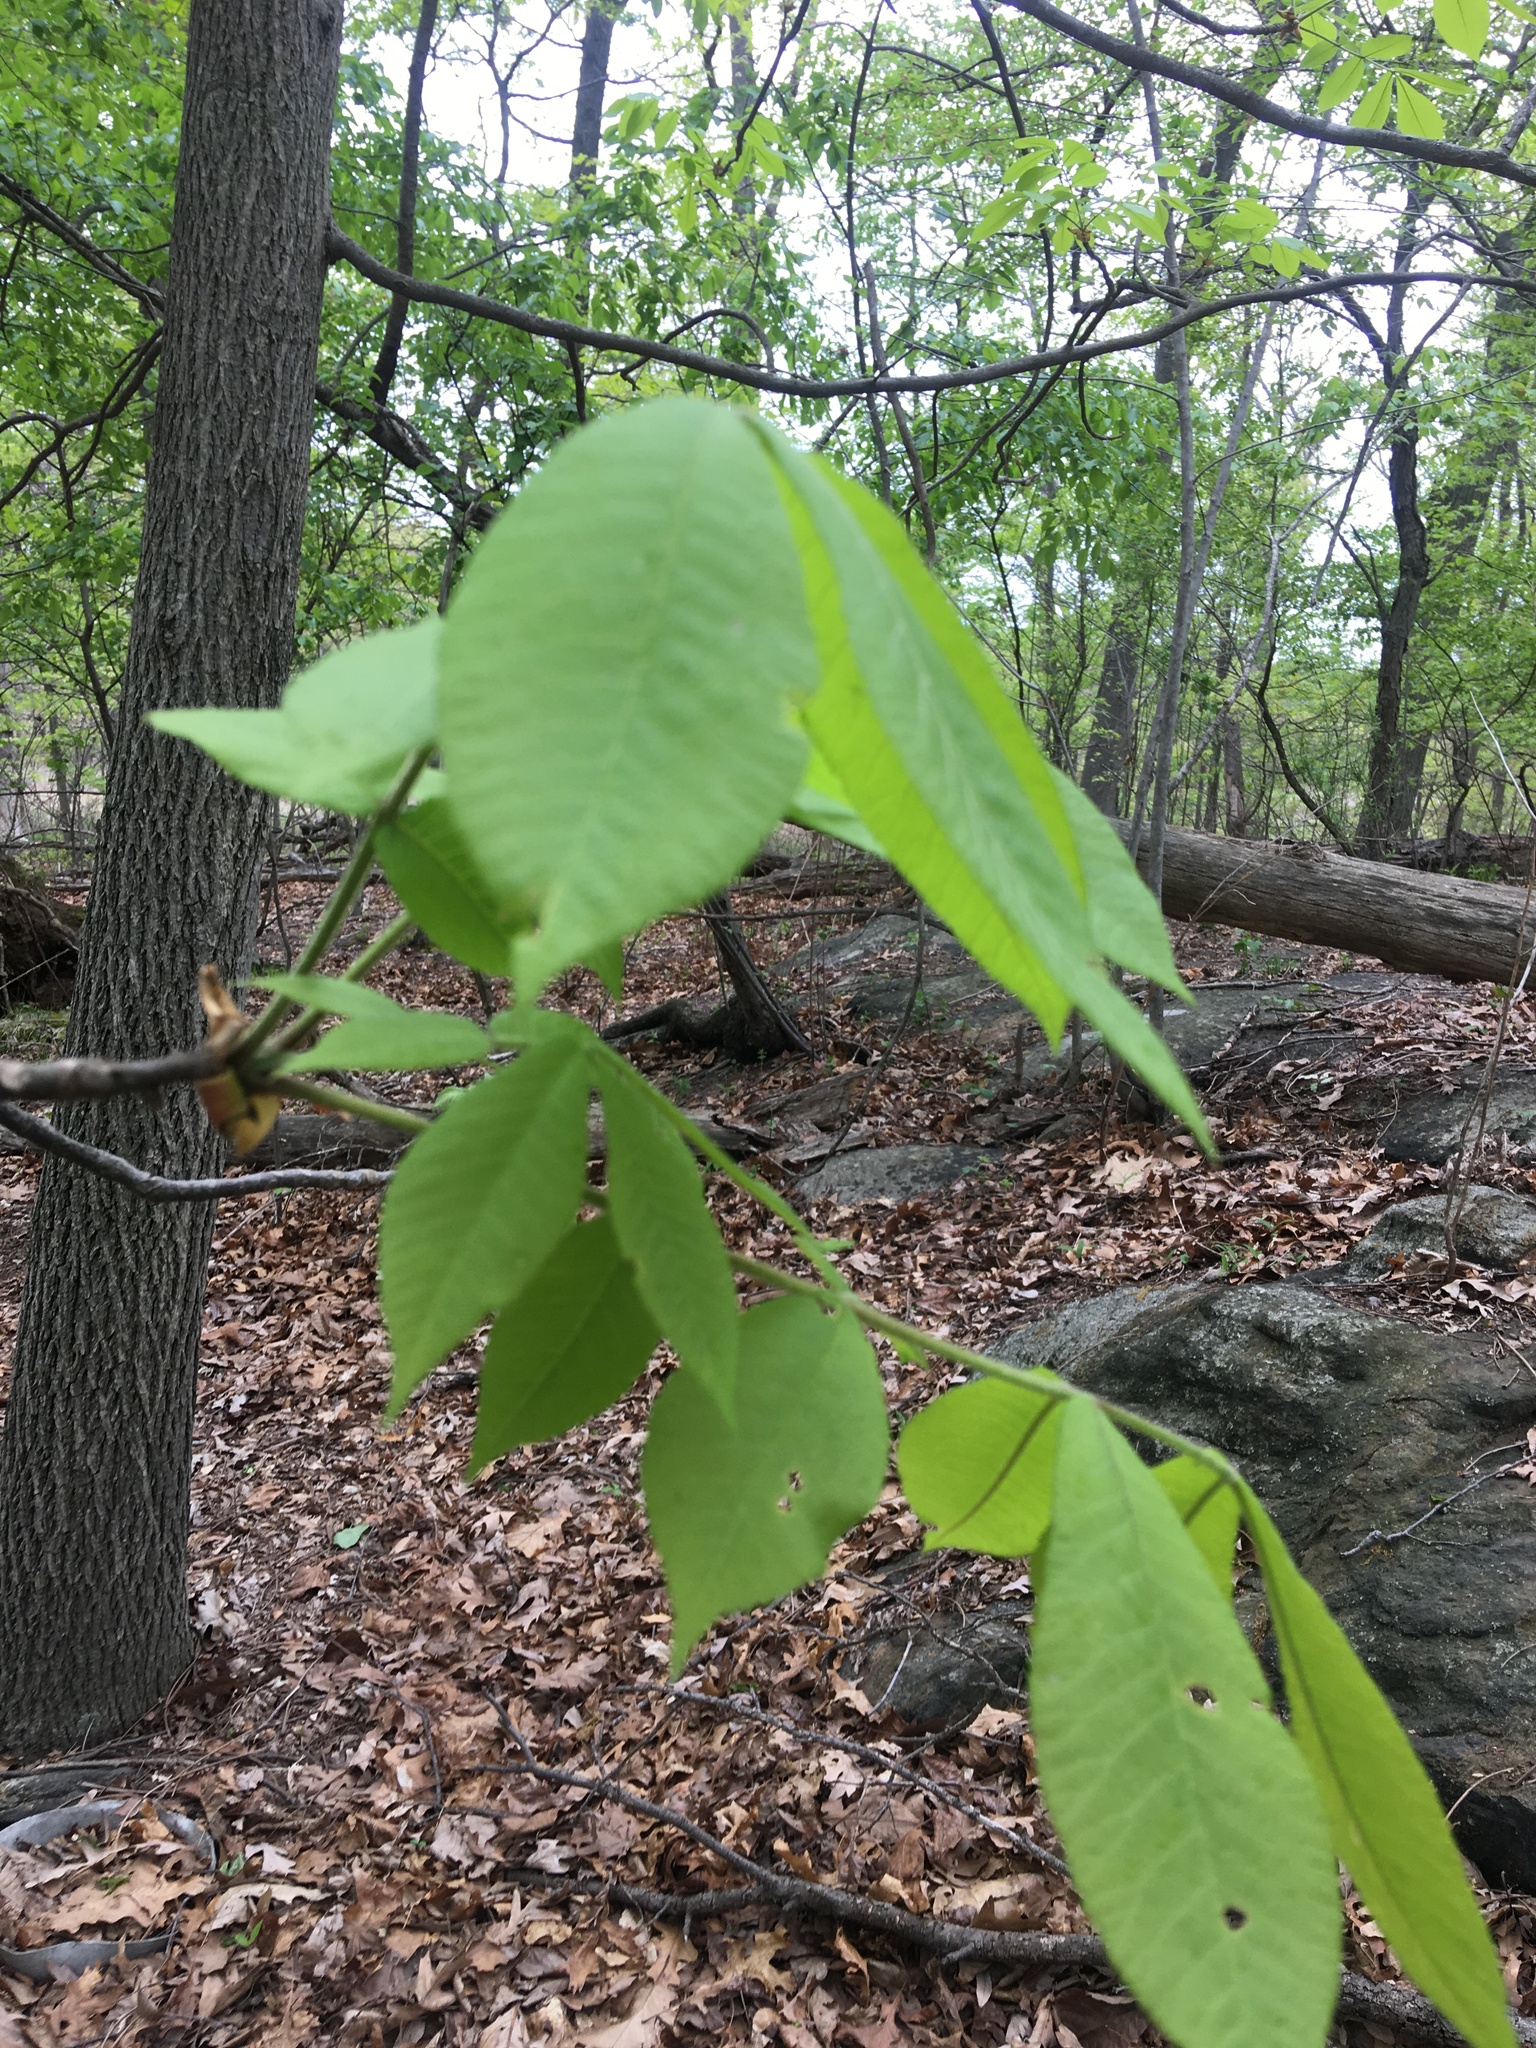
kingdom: Plantae
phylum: Tracheophyta
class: Magnoliopsida
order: Fagales
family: Juglandaceae
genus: Carya
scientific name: Carya glabra
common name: Pignut hickory
